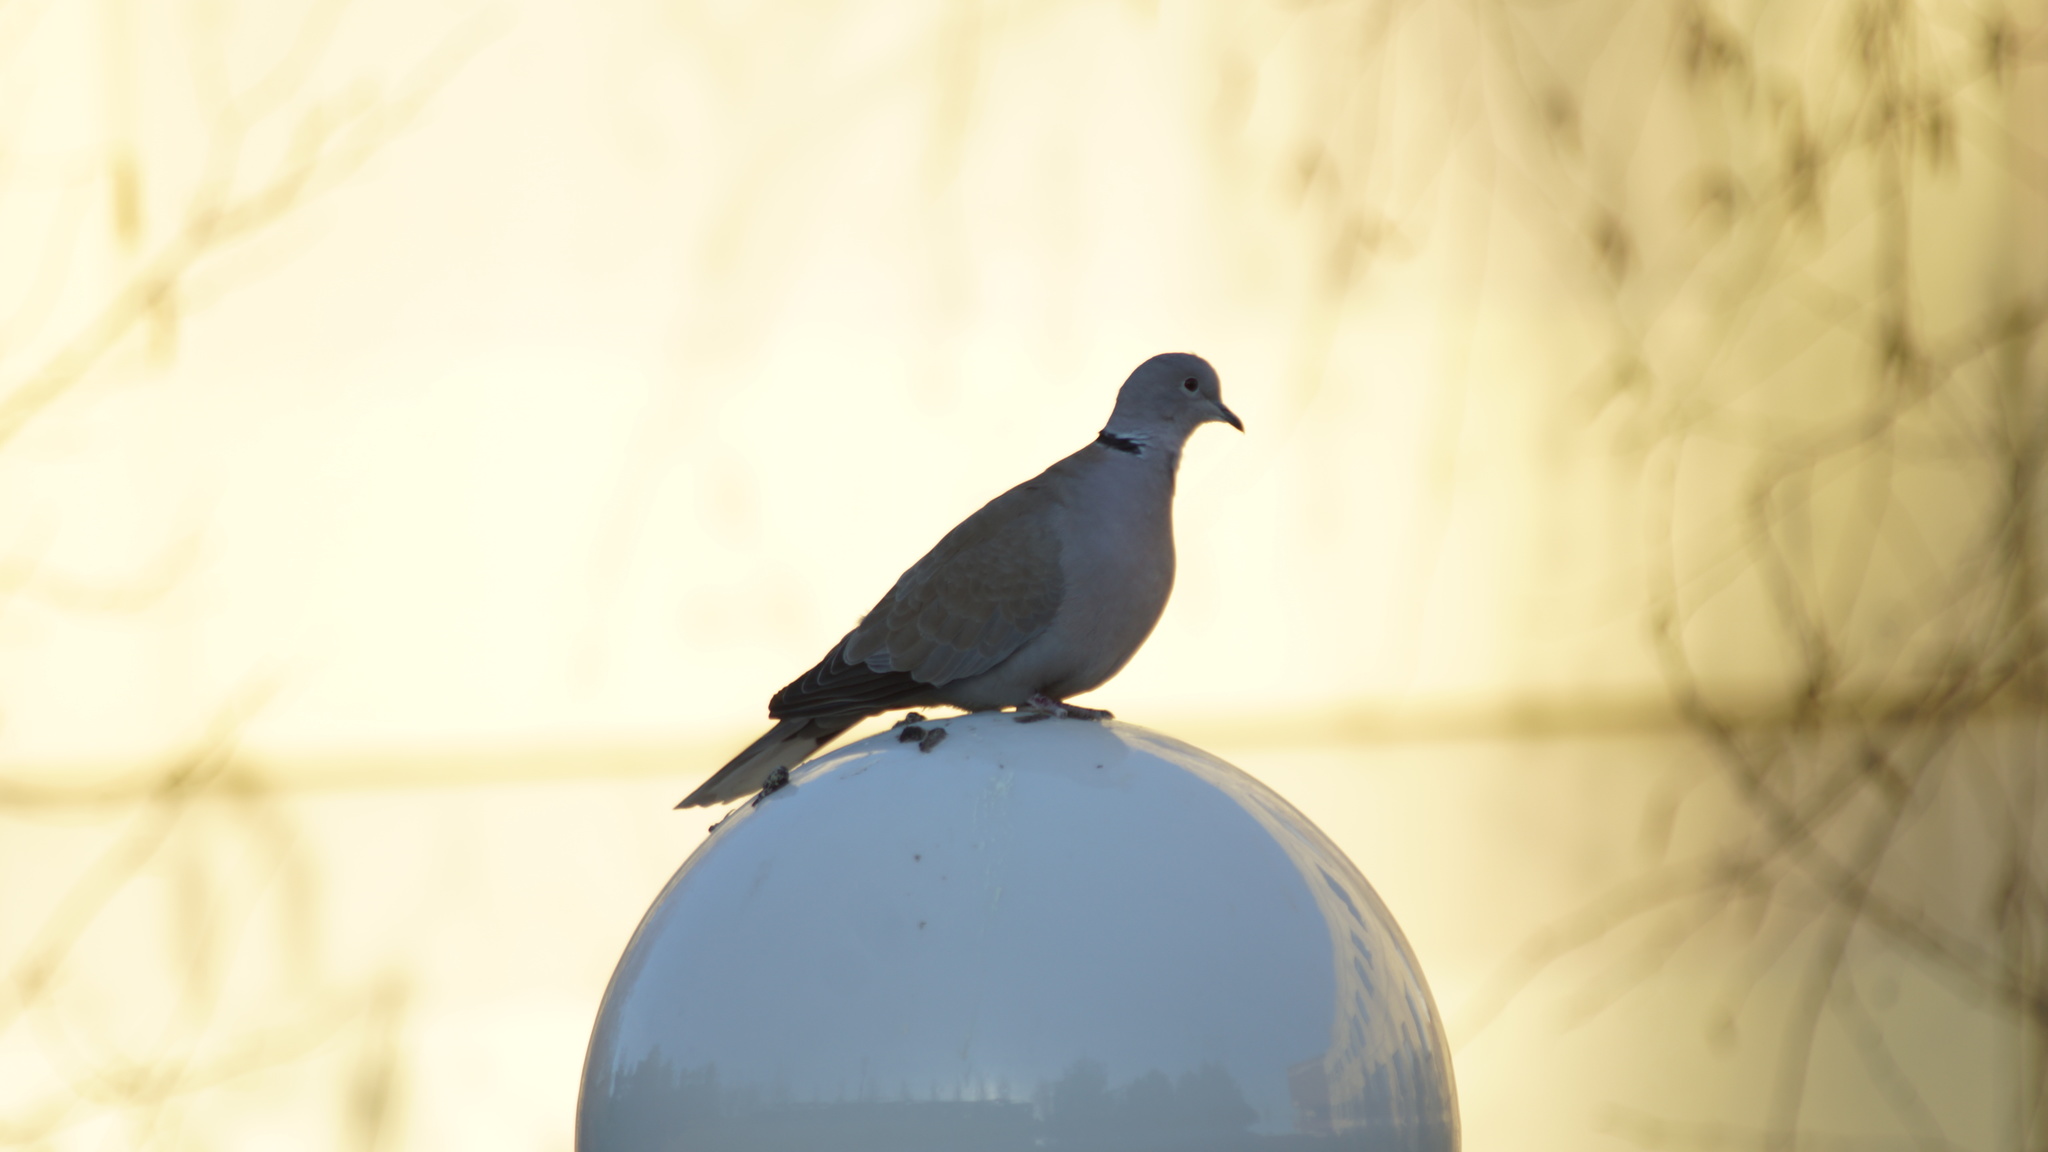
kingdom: Animalia
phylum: Chordata
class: Aves
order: Columbiformes
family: Columbidae
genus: Streptopelia
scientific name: Streptopelia decaocto
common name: Eurasian collared dove
